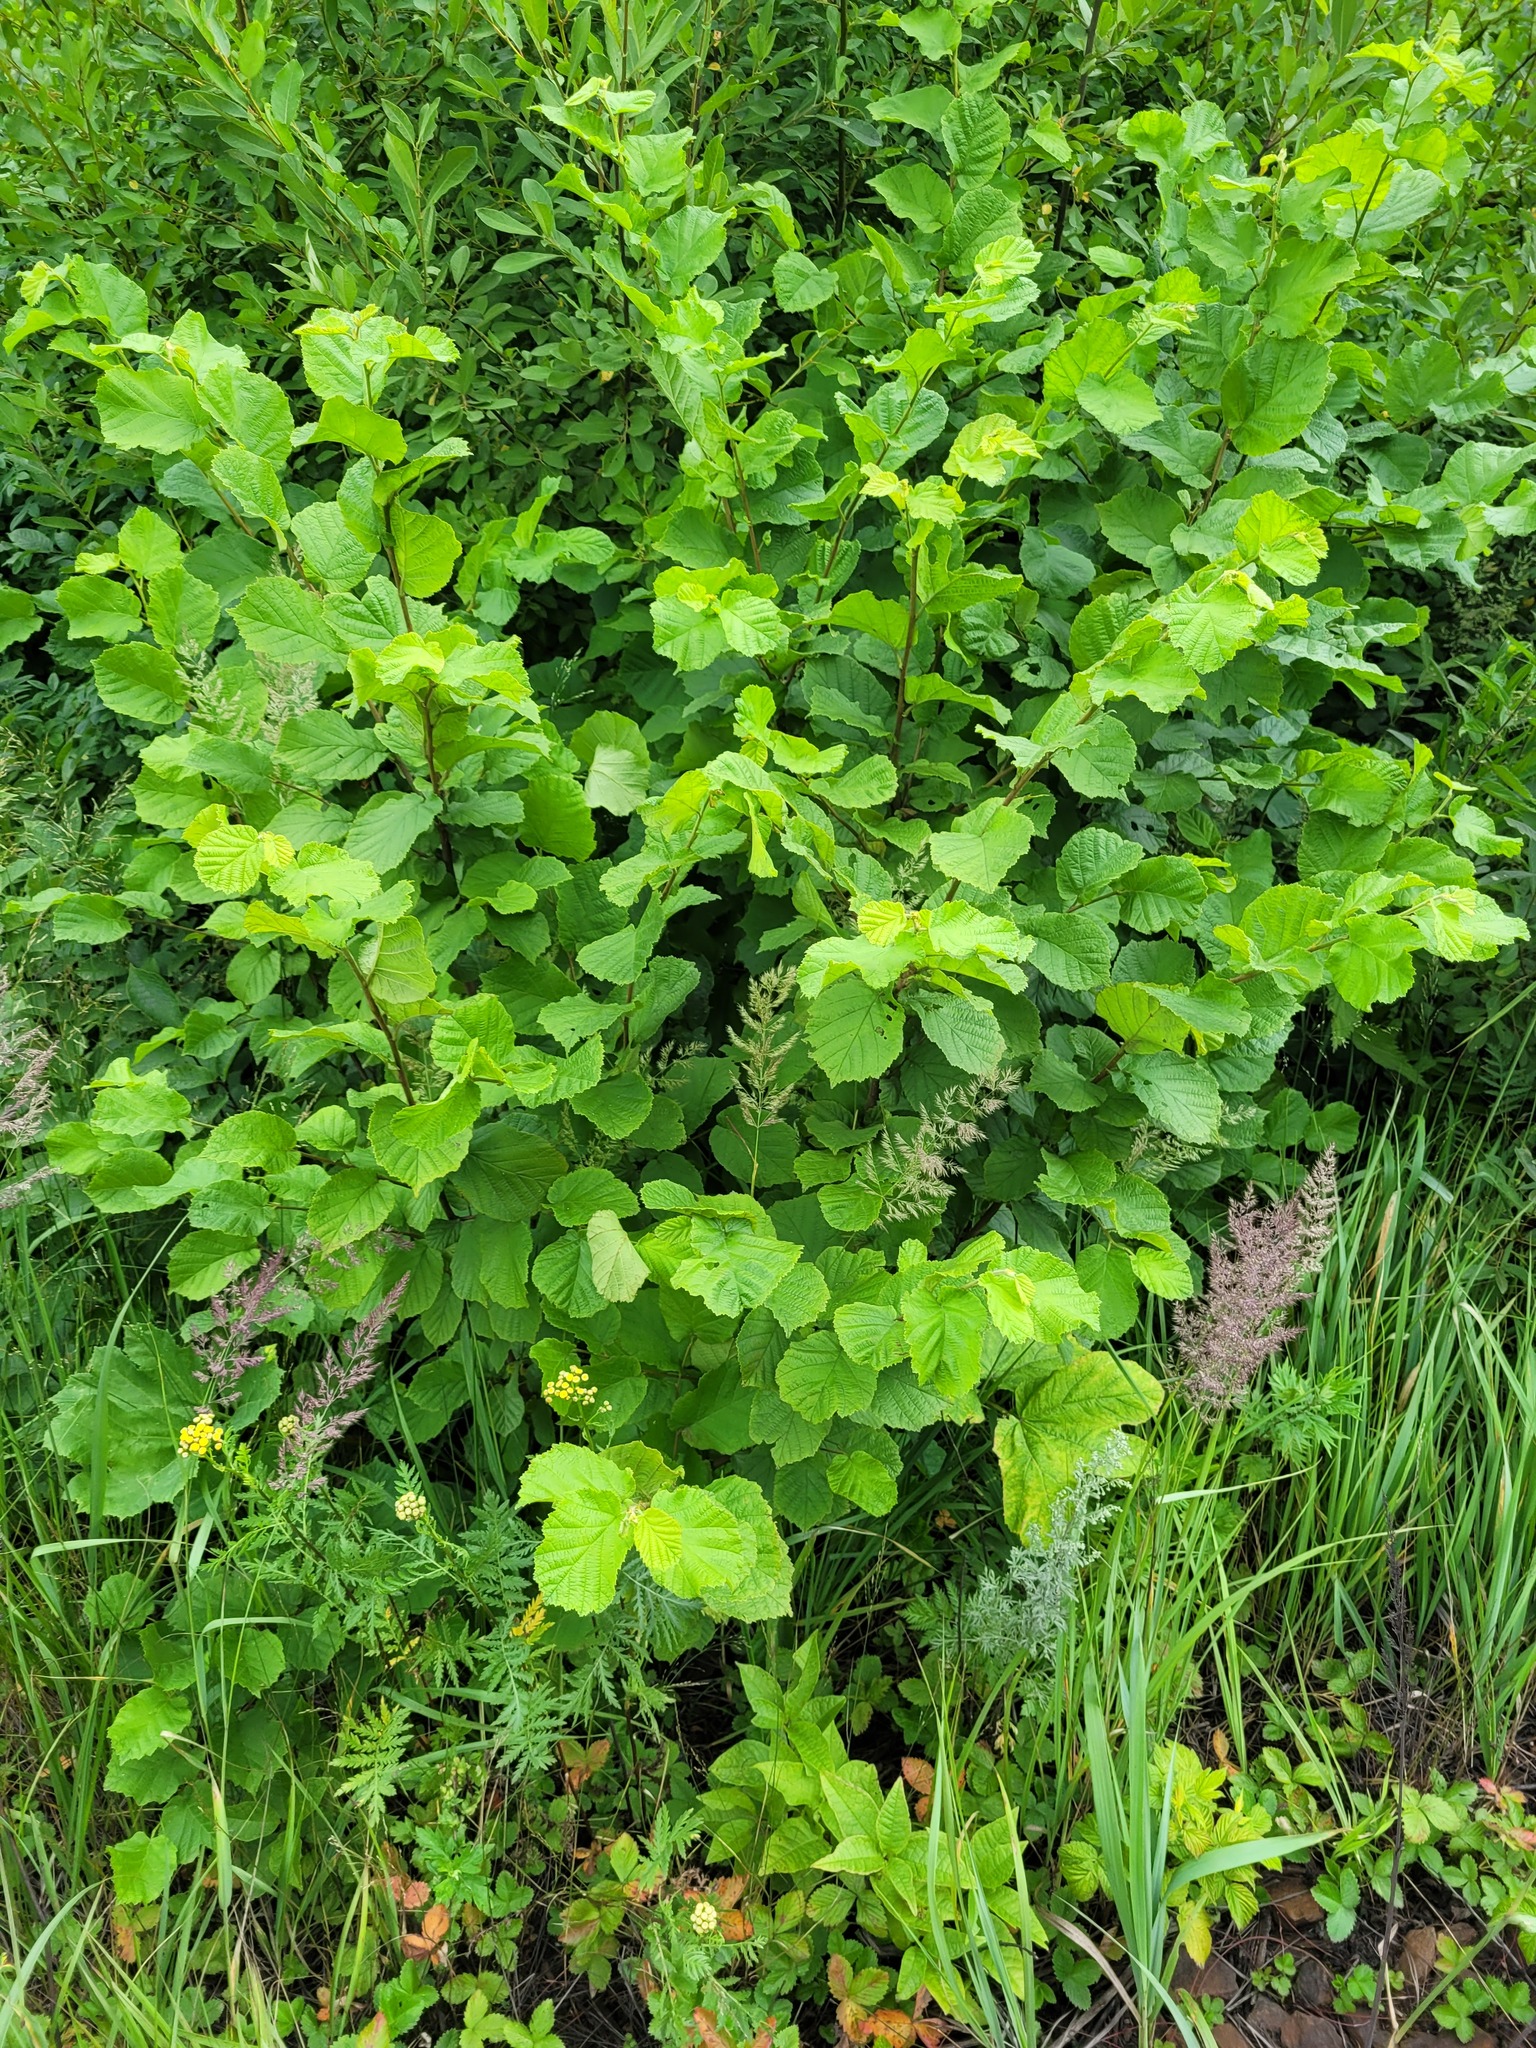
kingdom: Plantae
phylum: Tracheophyta
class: Magnoliopsida
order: Fagales
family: Betulaceae
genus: Corylus
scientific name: Corylus avellana
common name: European hazel
